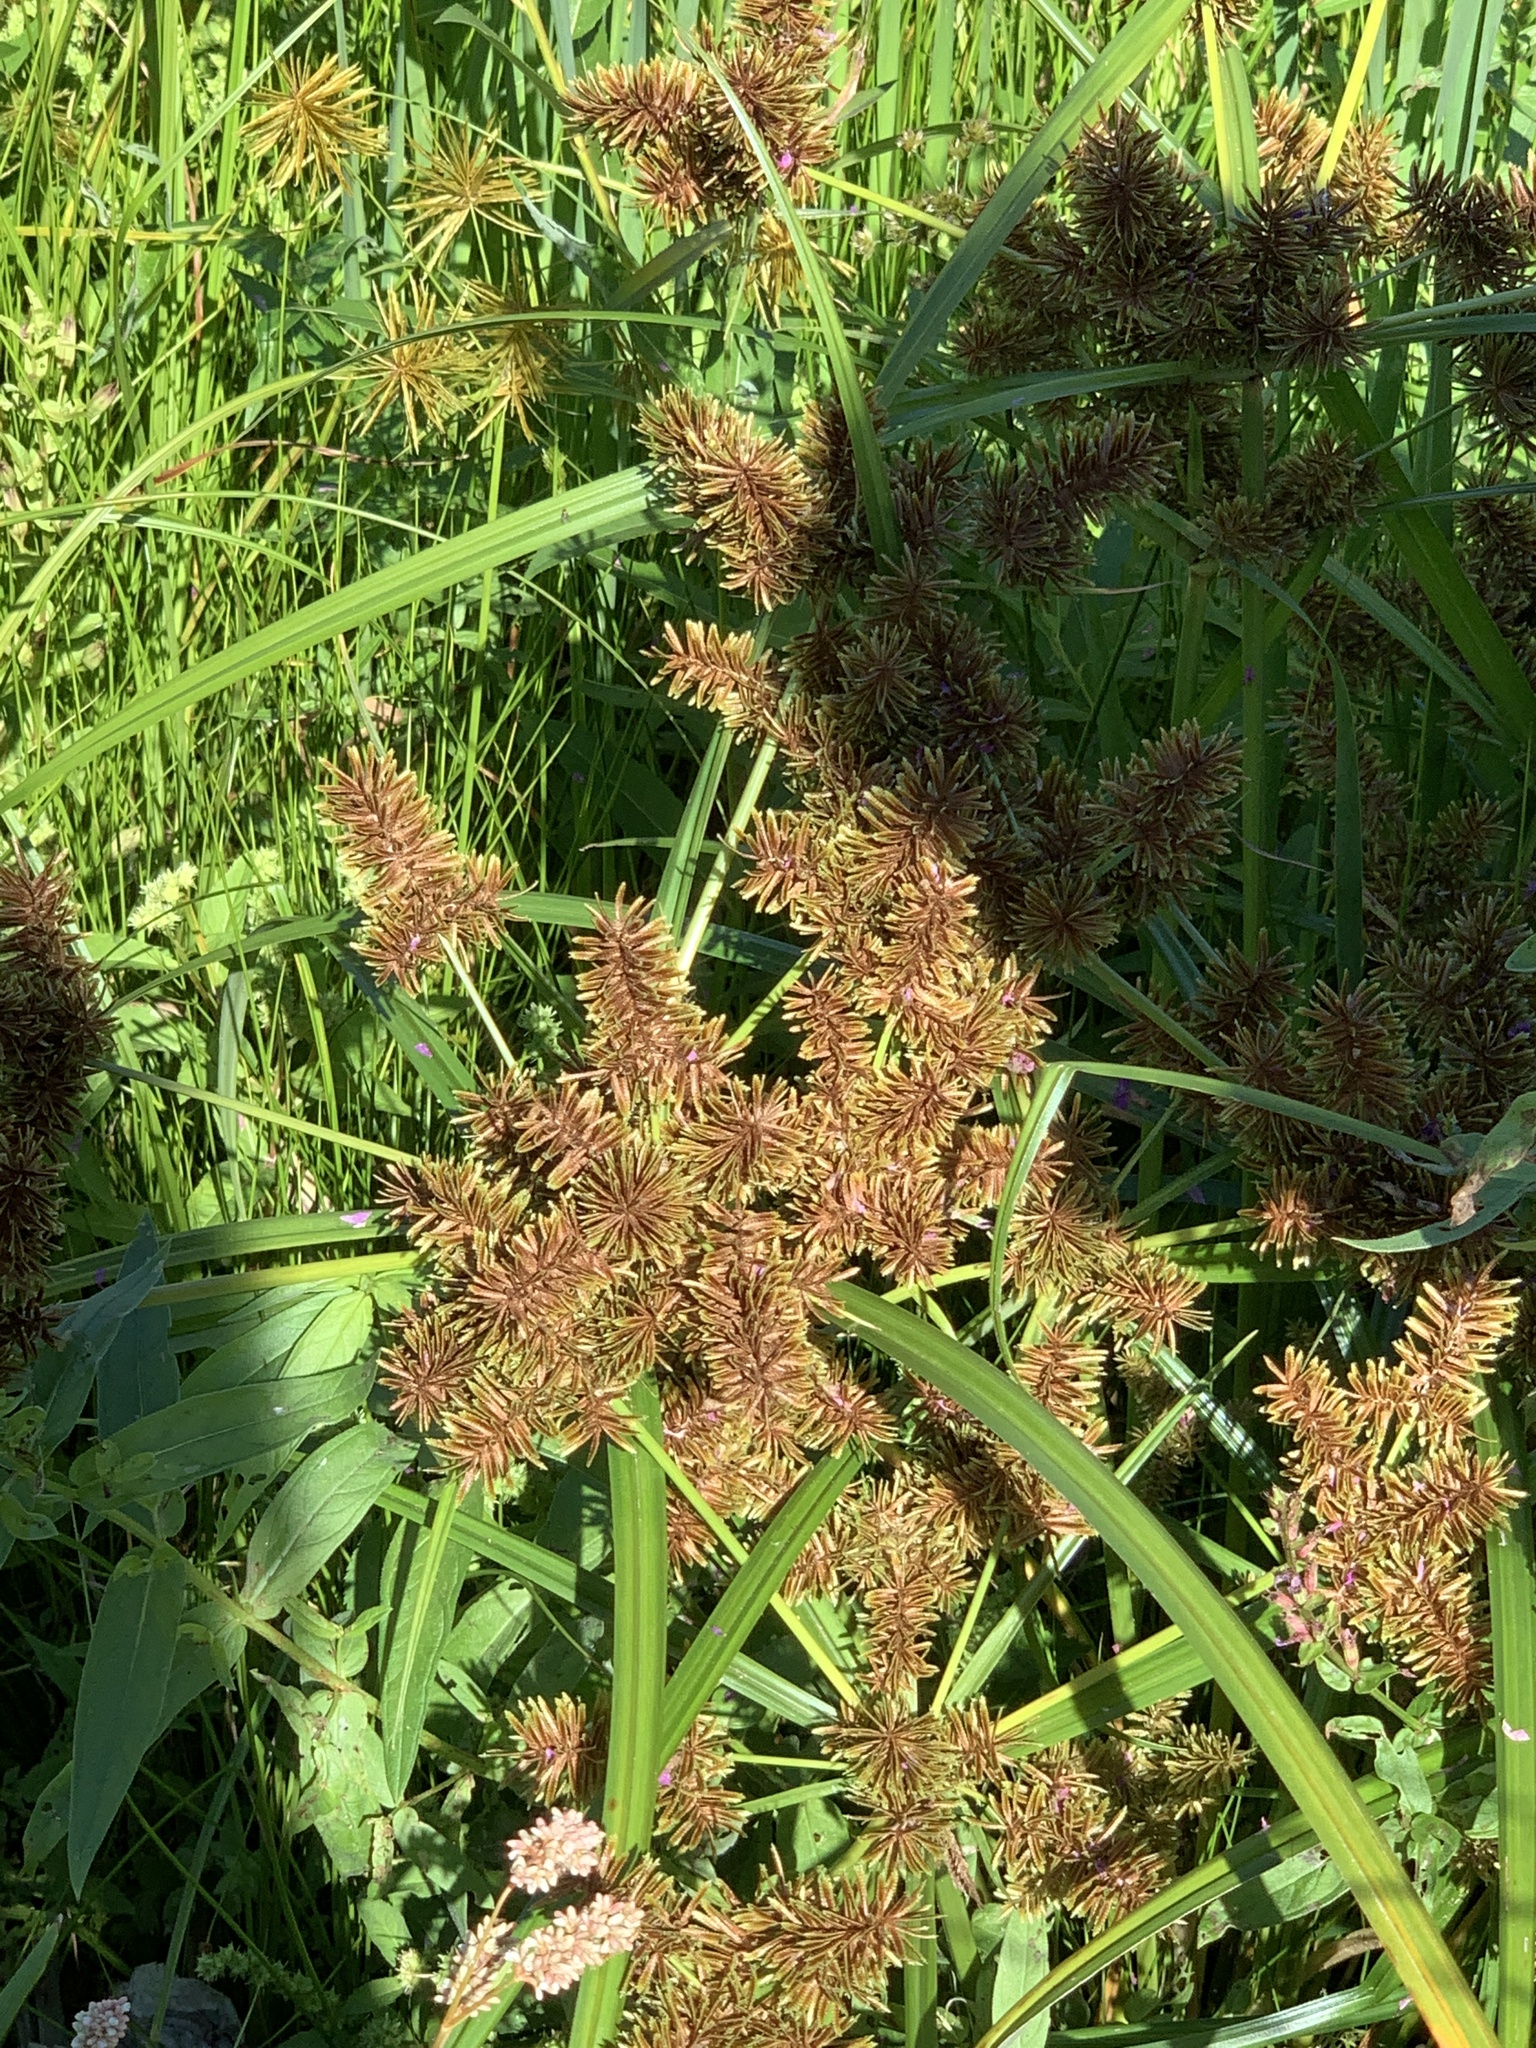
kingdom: Plantae
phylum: Tracheophyta
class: Liliopsida
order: Poales
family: Cyperaceae
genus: Cyperus
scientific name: Cyperus erythrorhizos
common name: Red-root flat sedge
